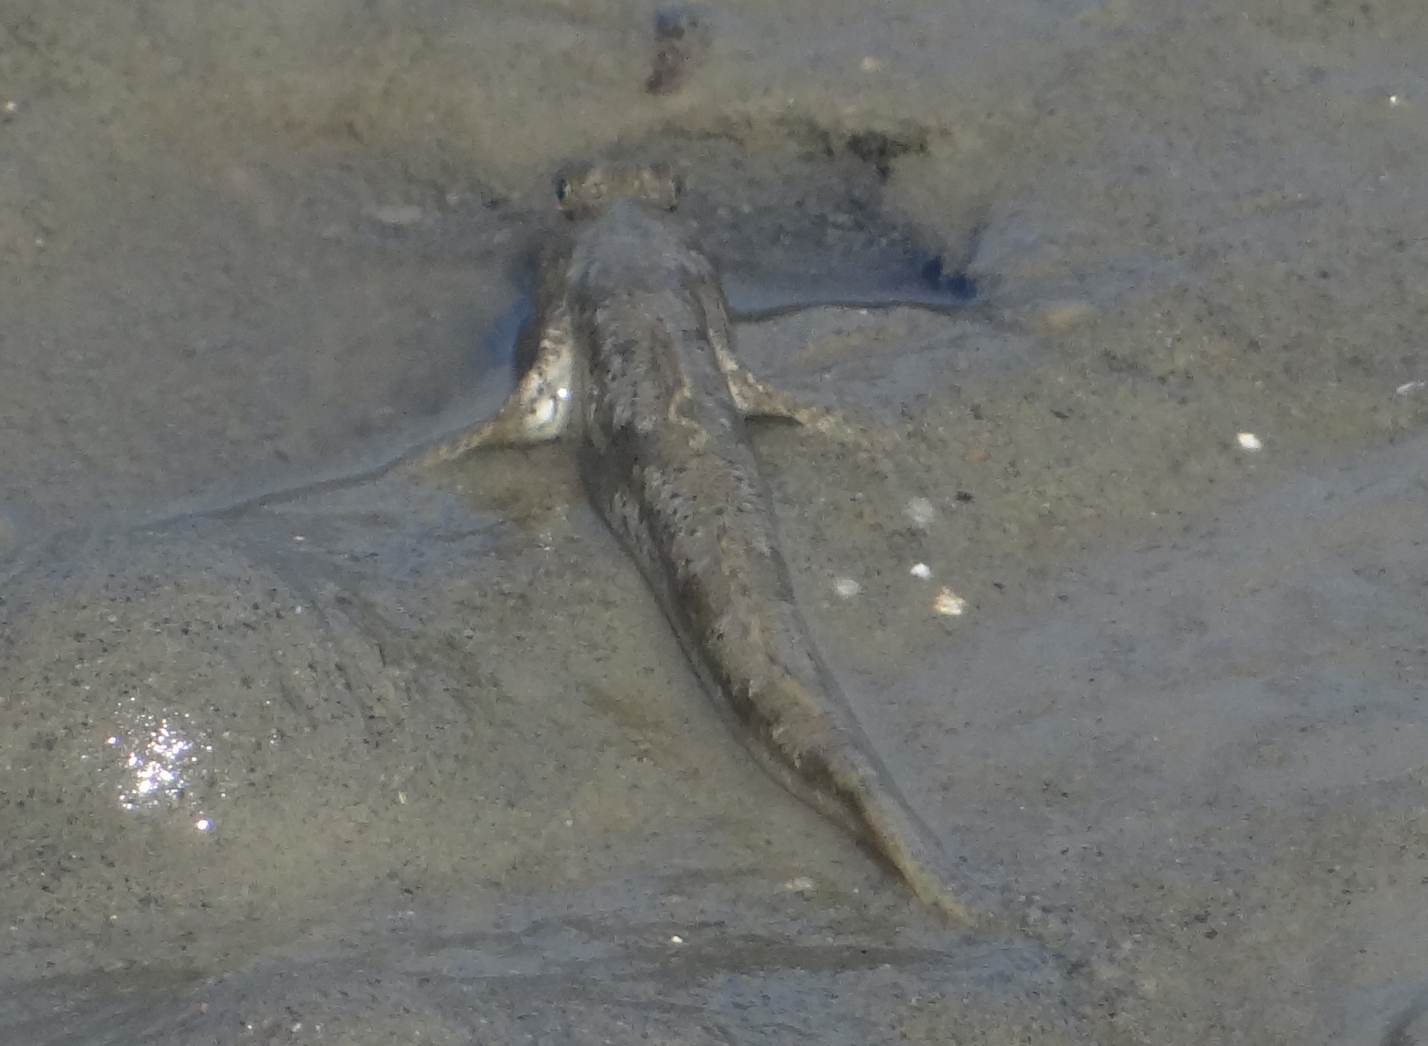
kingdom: Animalia
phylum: Chordata
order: Perciformes
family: Gobiidae
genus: Periophthalmus
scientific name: Periophthalmus modestus
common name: Black goby
